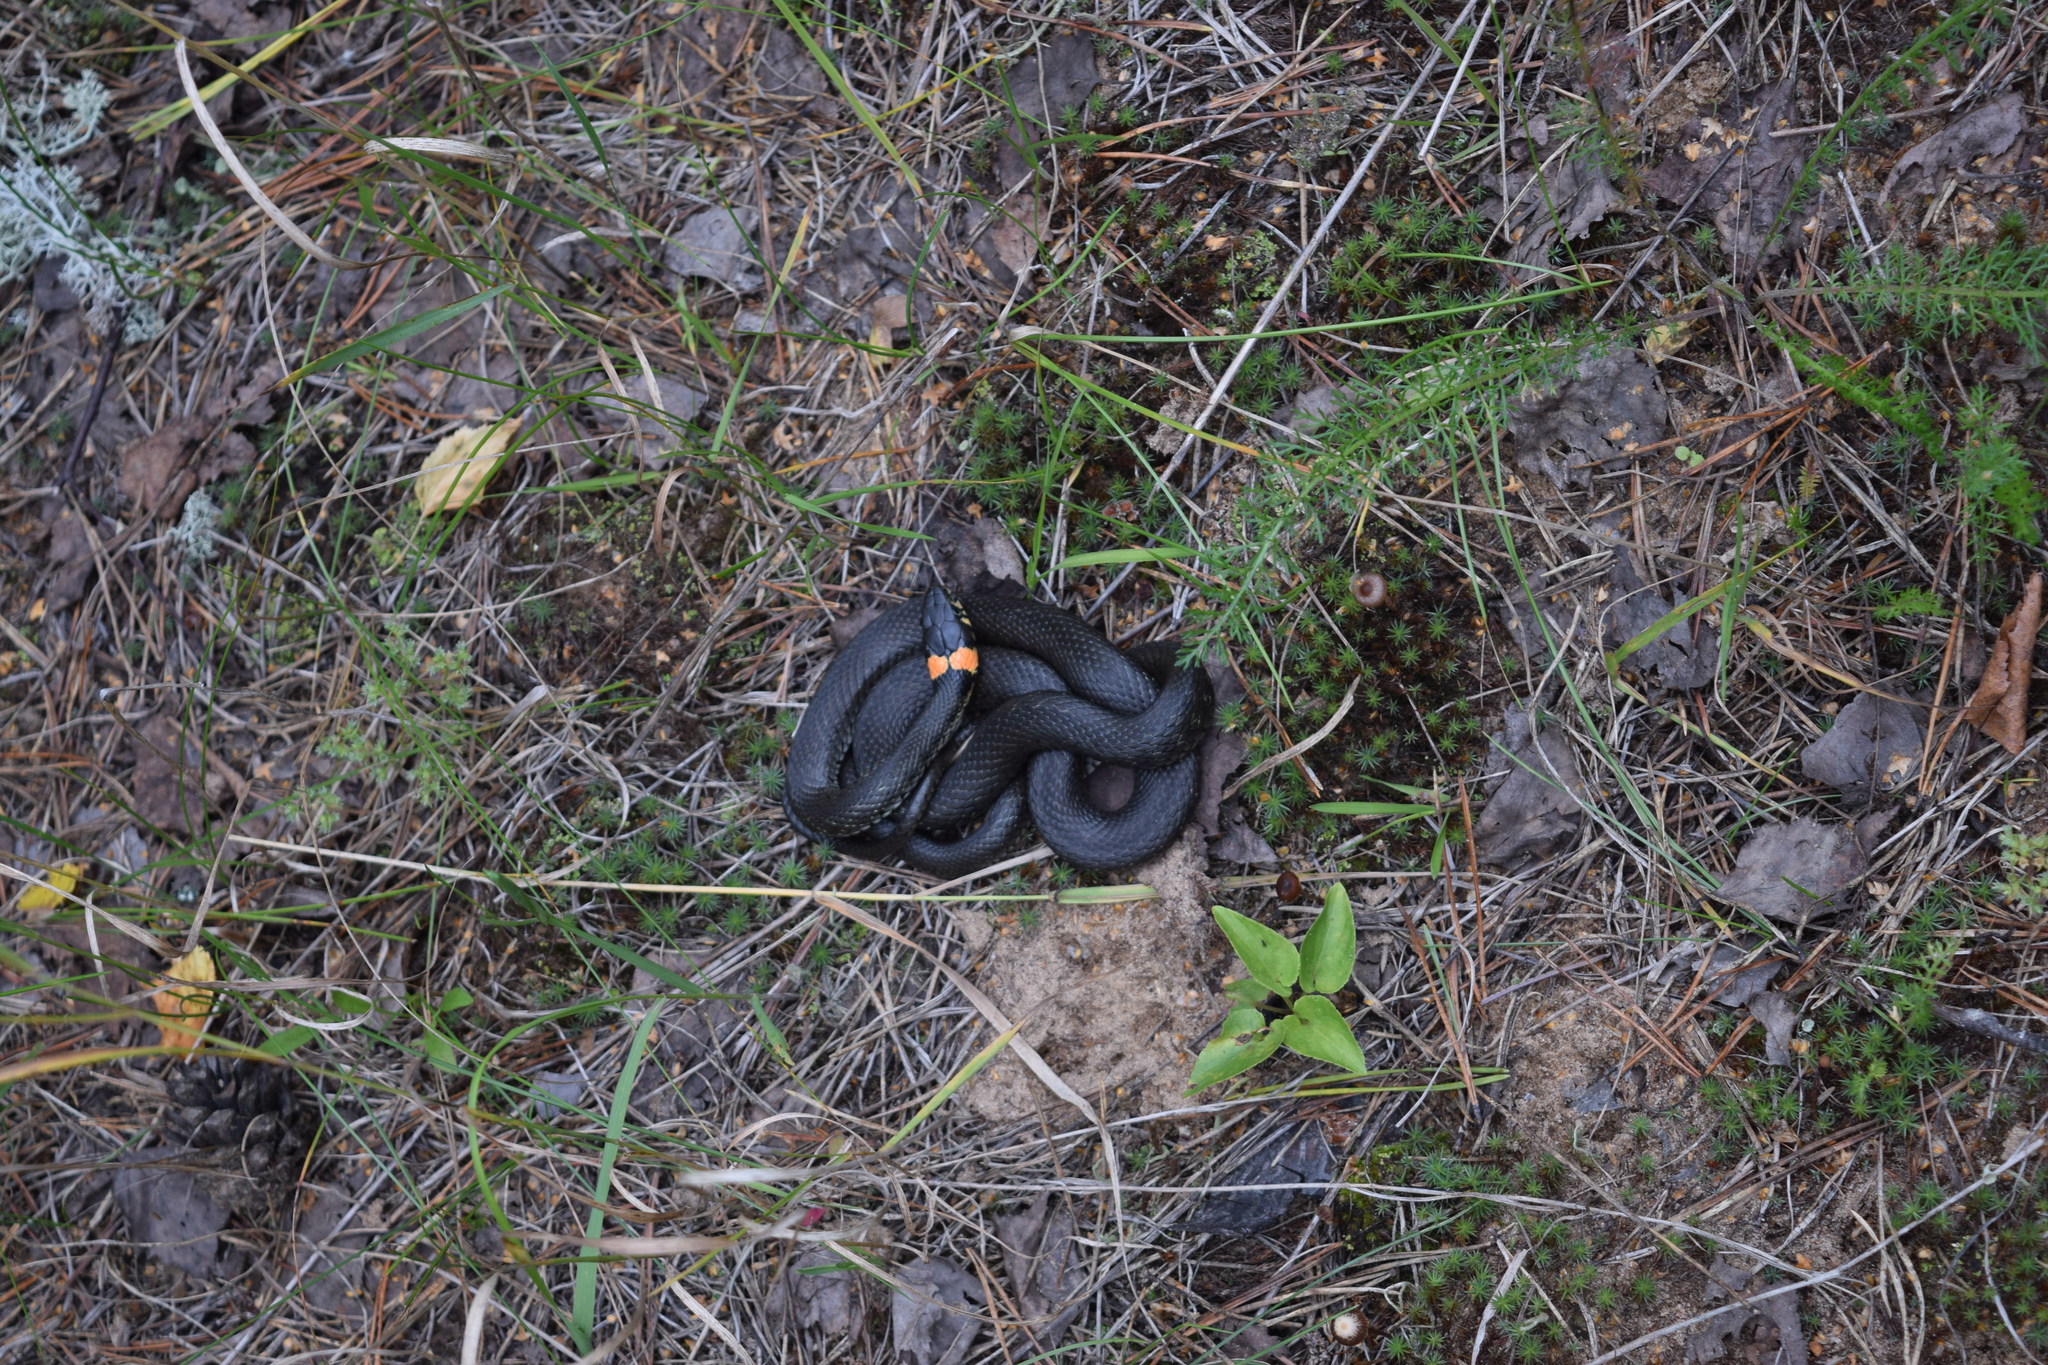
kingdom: Animalia
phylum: Chordata
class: Squamata
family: Colubridae
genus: Natrix
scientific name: Natrix natrix
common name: Grass snake
